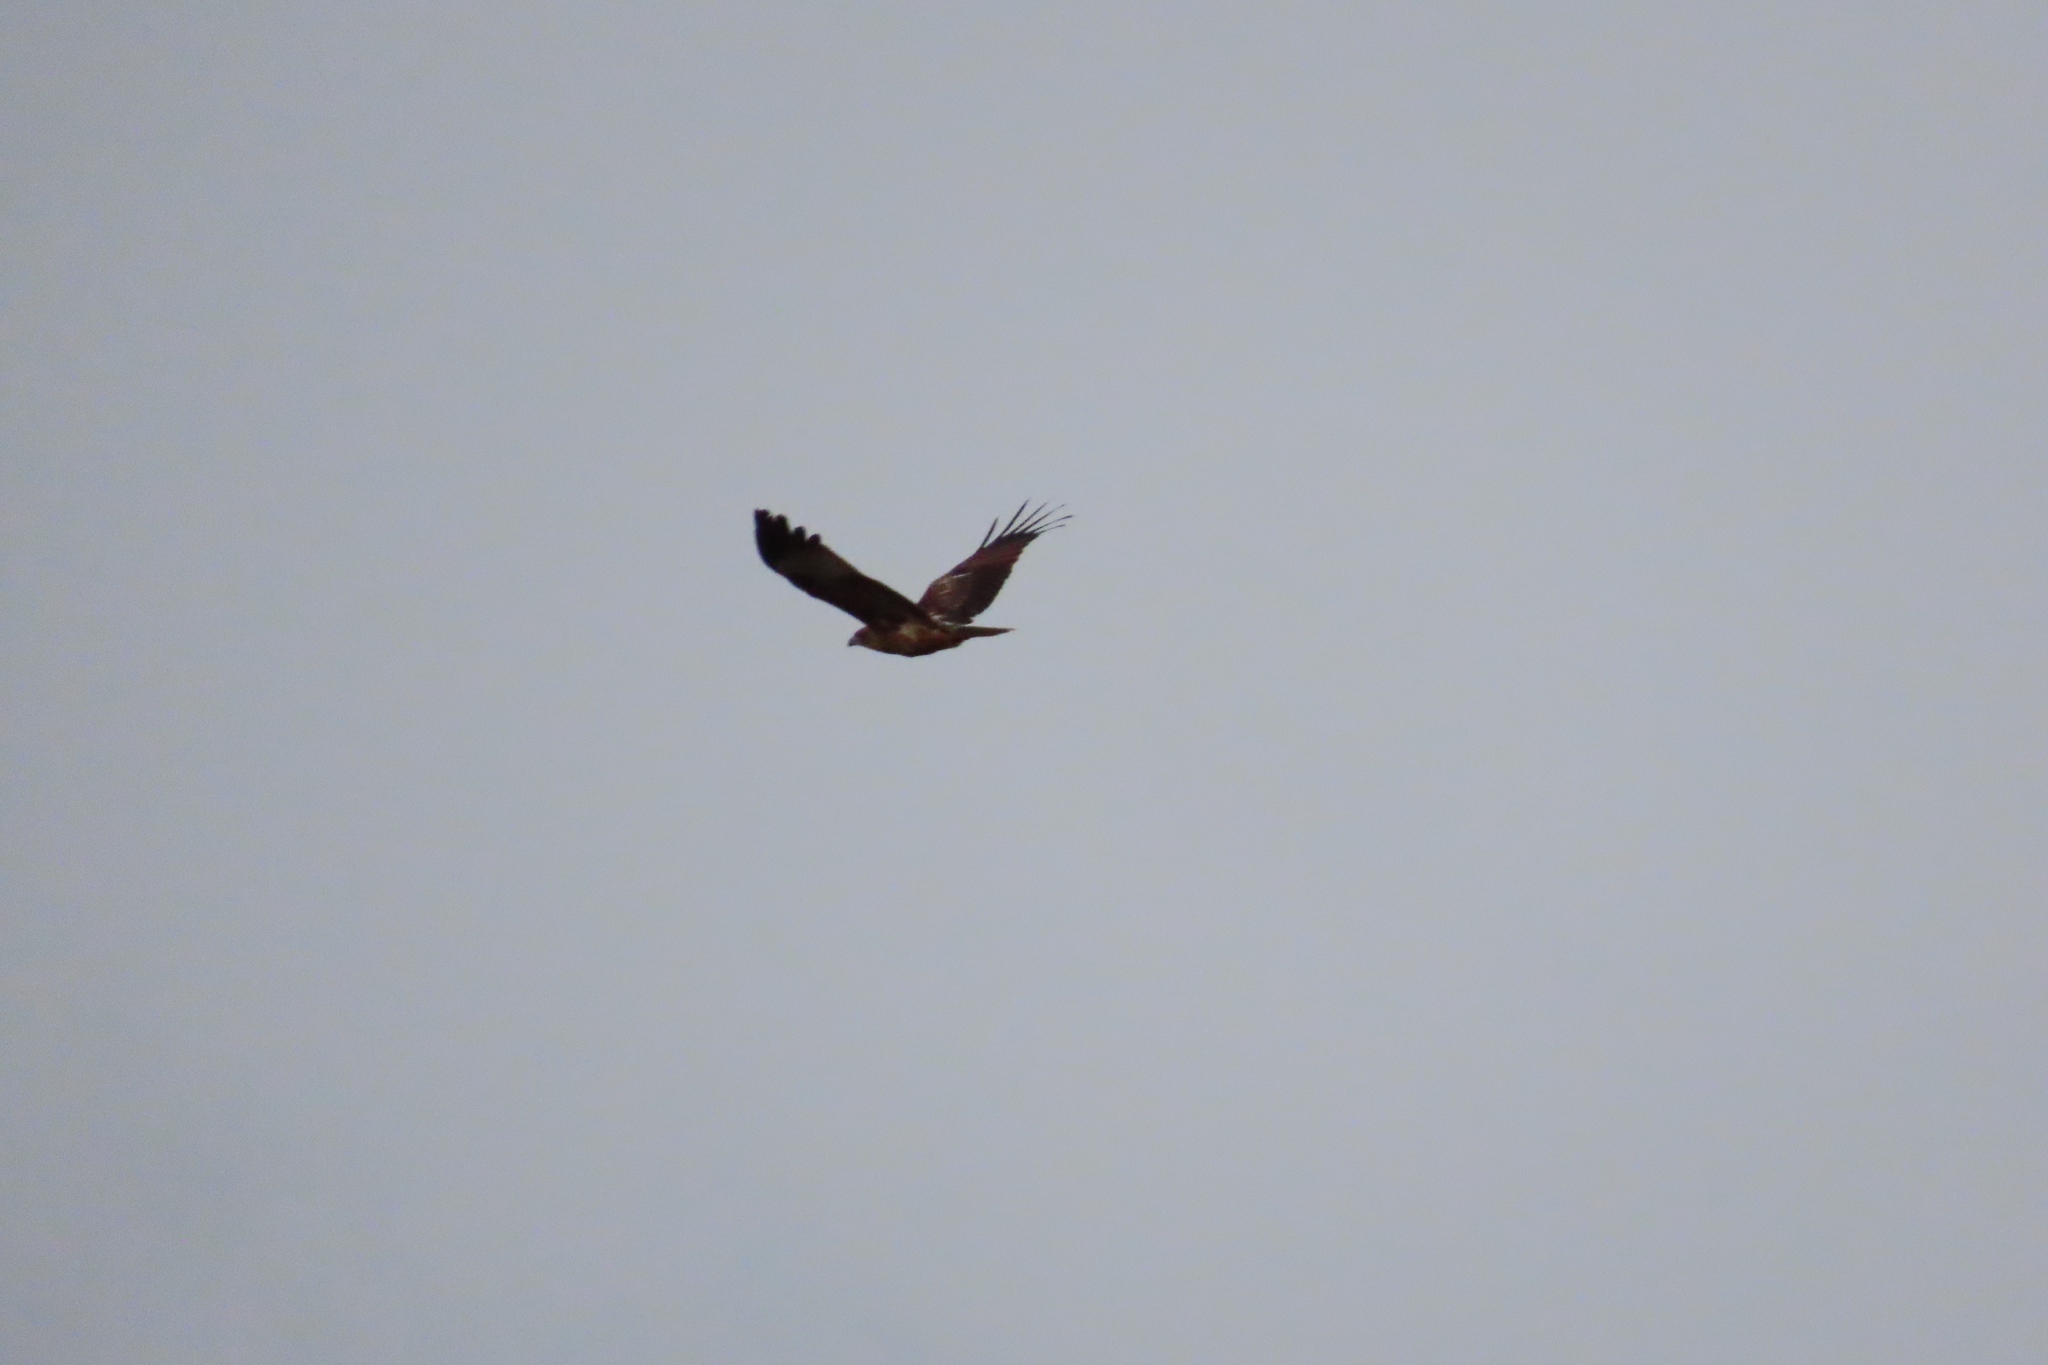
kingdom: Animalia
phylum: Chordata
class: Aves
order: Accipitriformes
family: Accipitridae
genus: Haliastur
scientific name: Haliastur indus
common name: Brahminy kite
